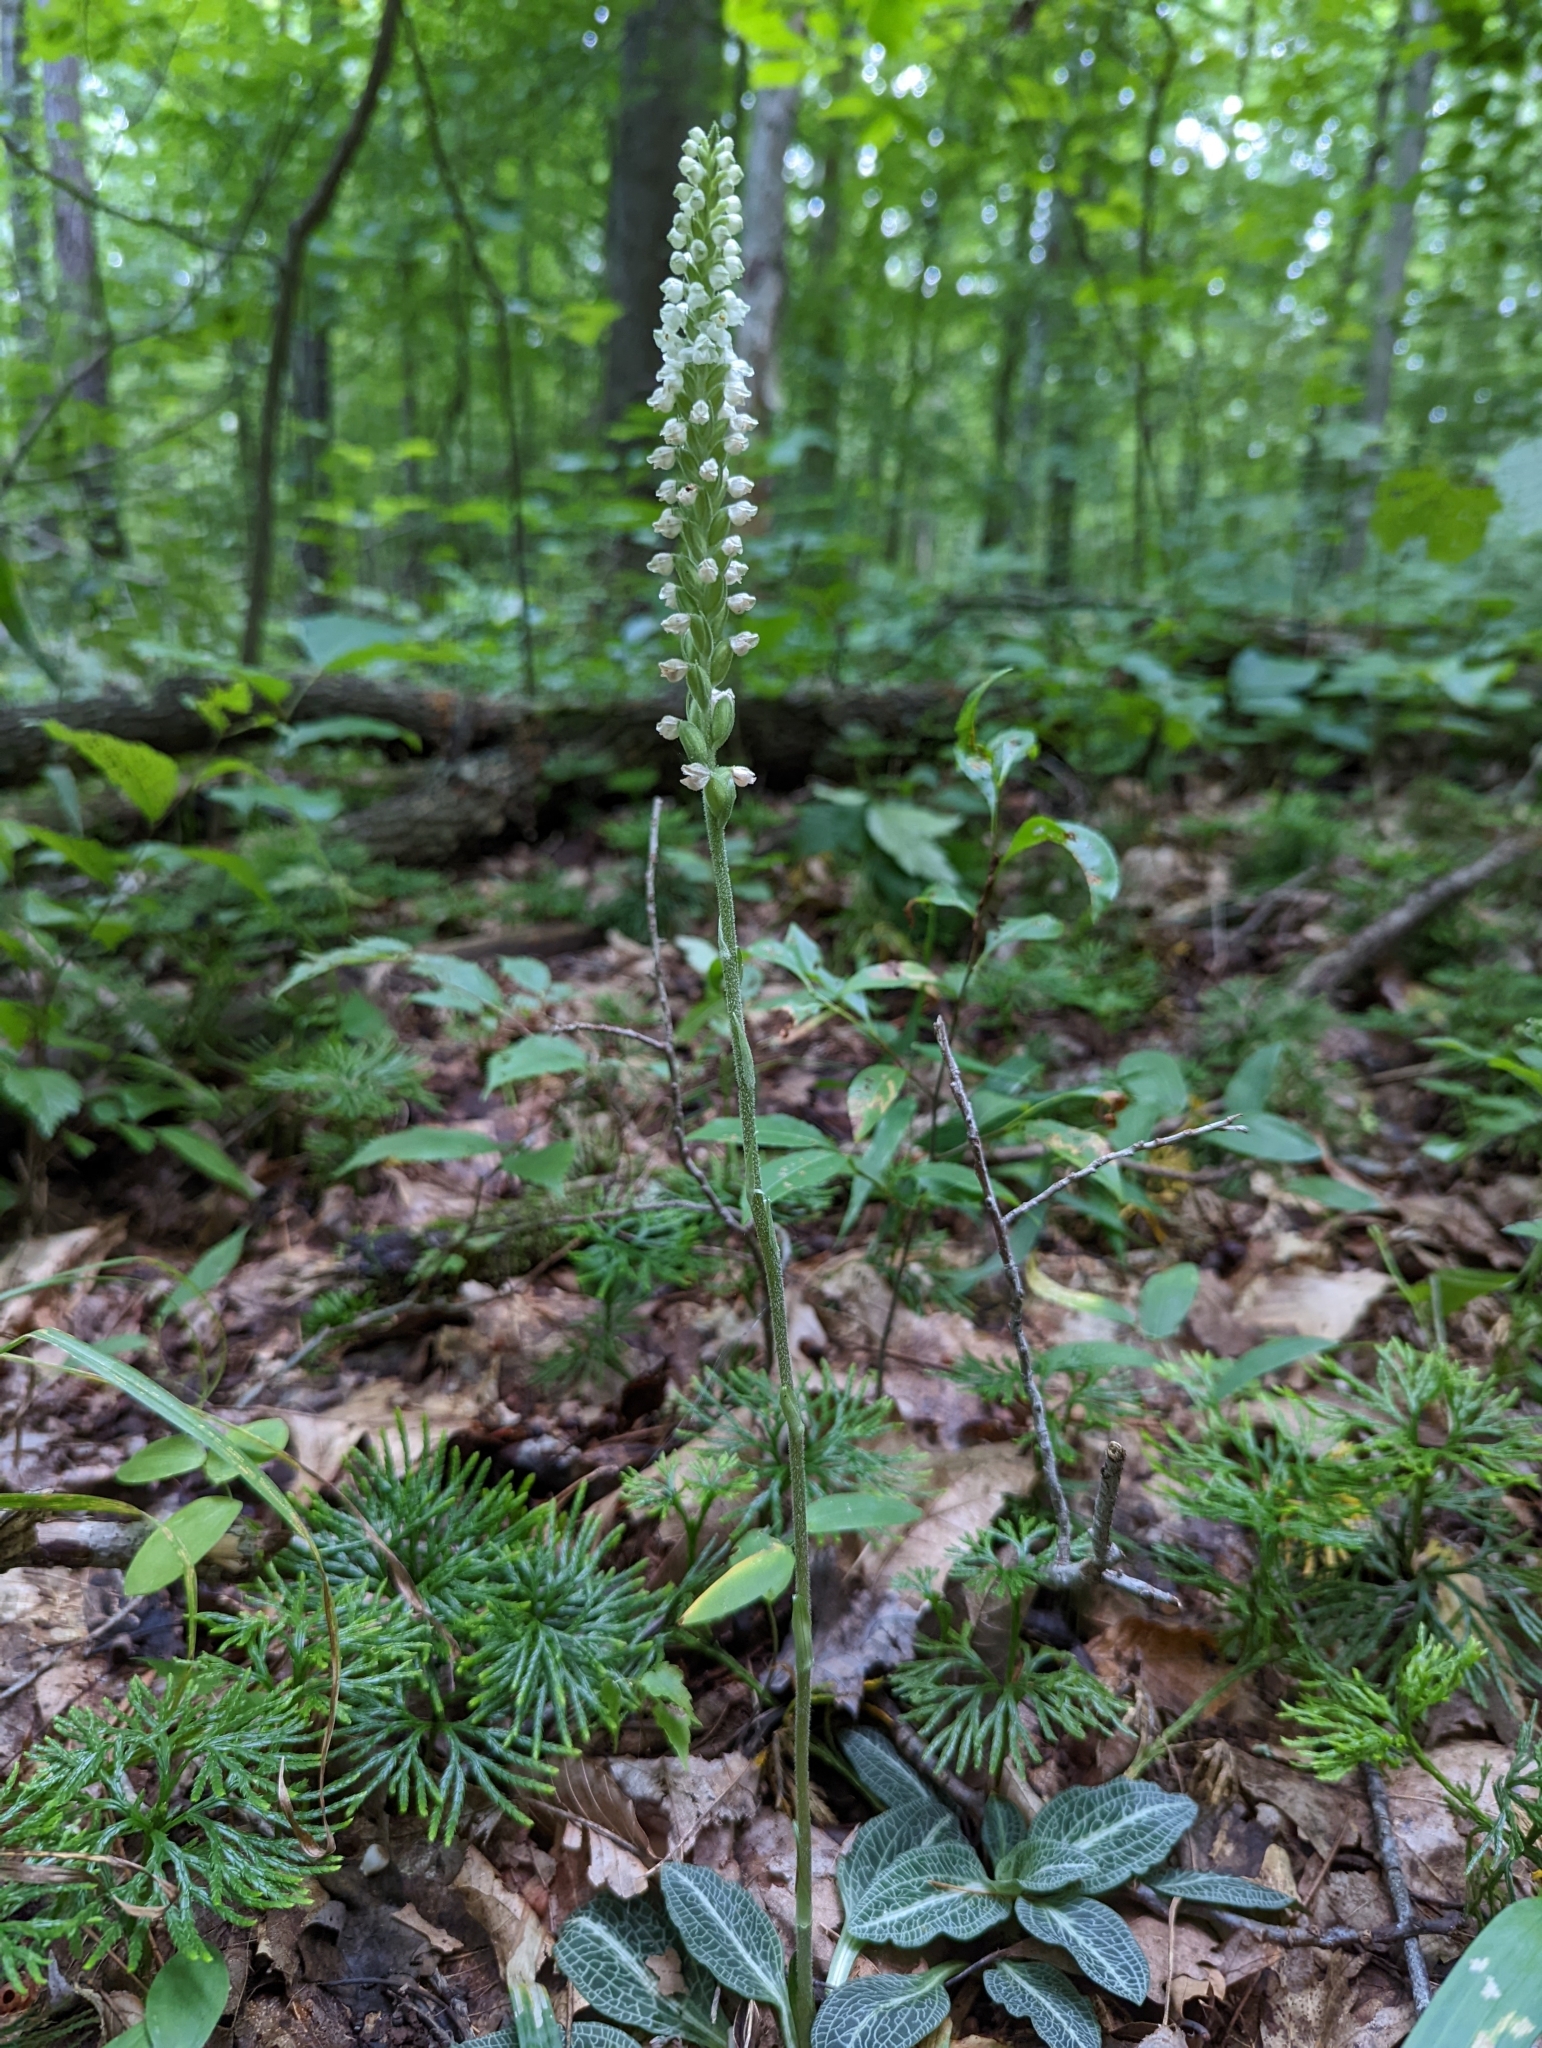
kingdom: Plantae
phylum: Tracheophyta
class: Liliopsida
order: Asparagales
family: Orchidaceae
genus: Goodyera
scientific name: Goodyera pubescens
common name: Downy rattlesnake-plantain
